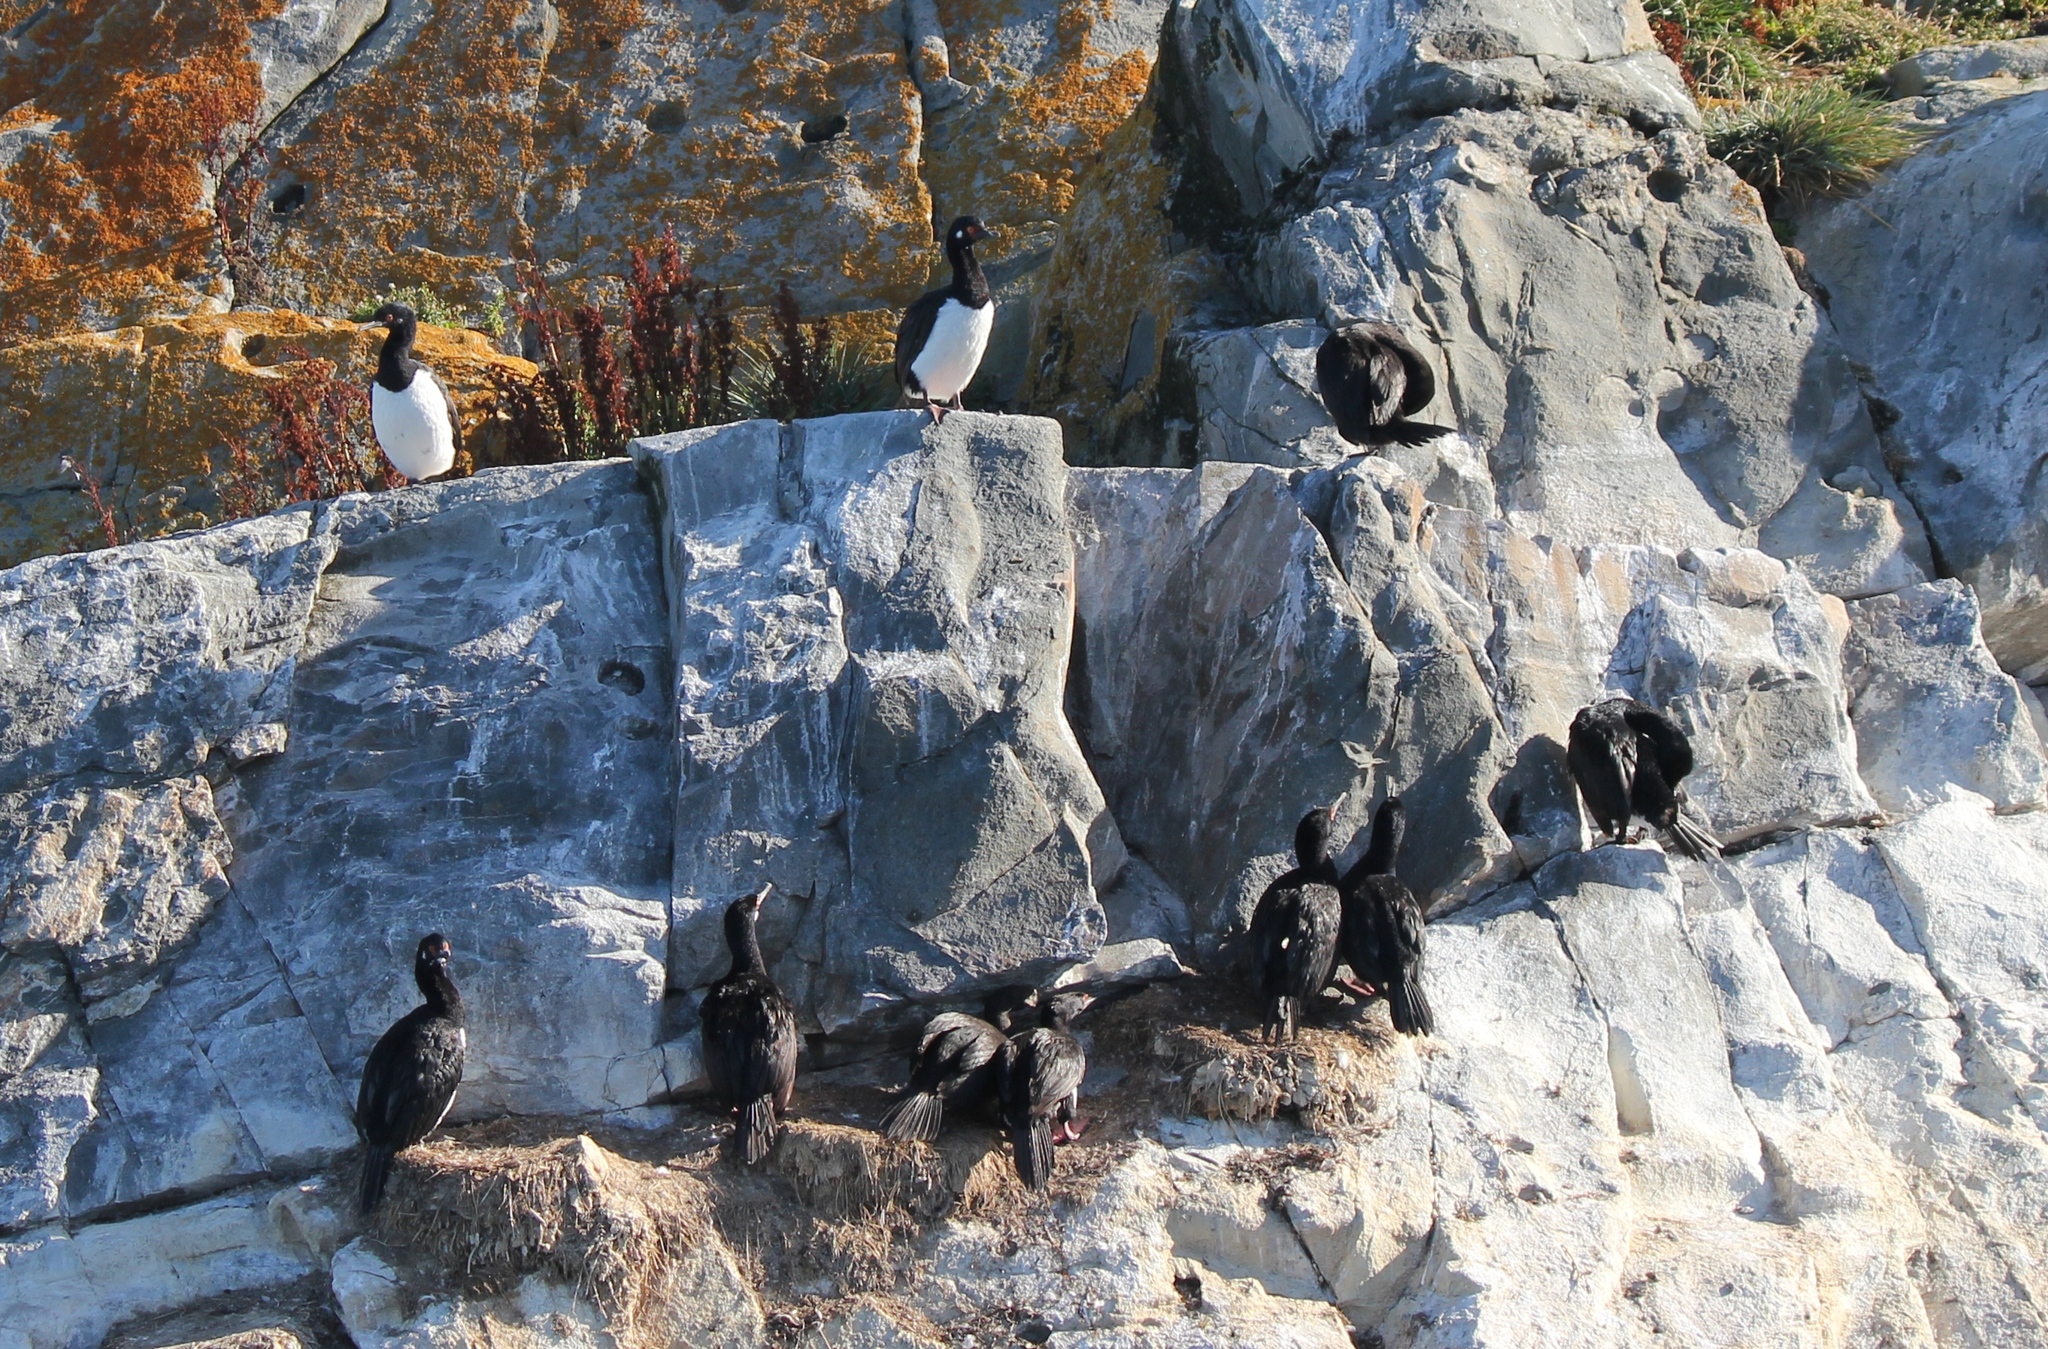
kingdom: Animalia
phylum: Chordata
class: Aves
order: Suliformes
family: Phalacrocoracidae
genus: Phalacrocorax
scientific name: Phalacrocorax magellanicus
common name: Rock shag
